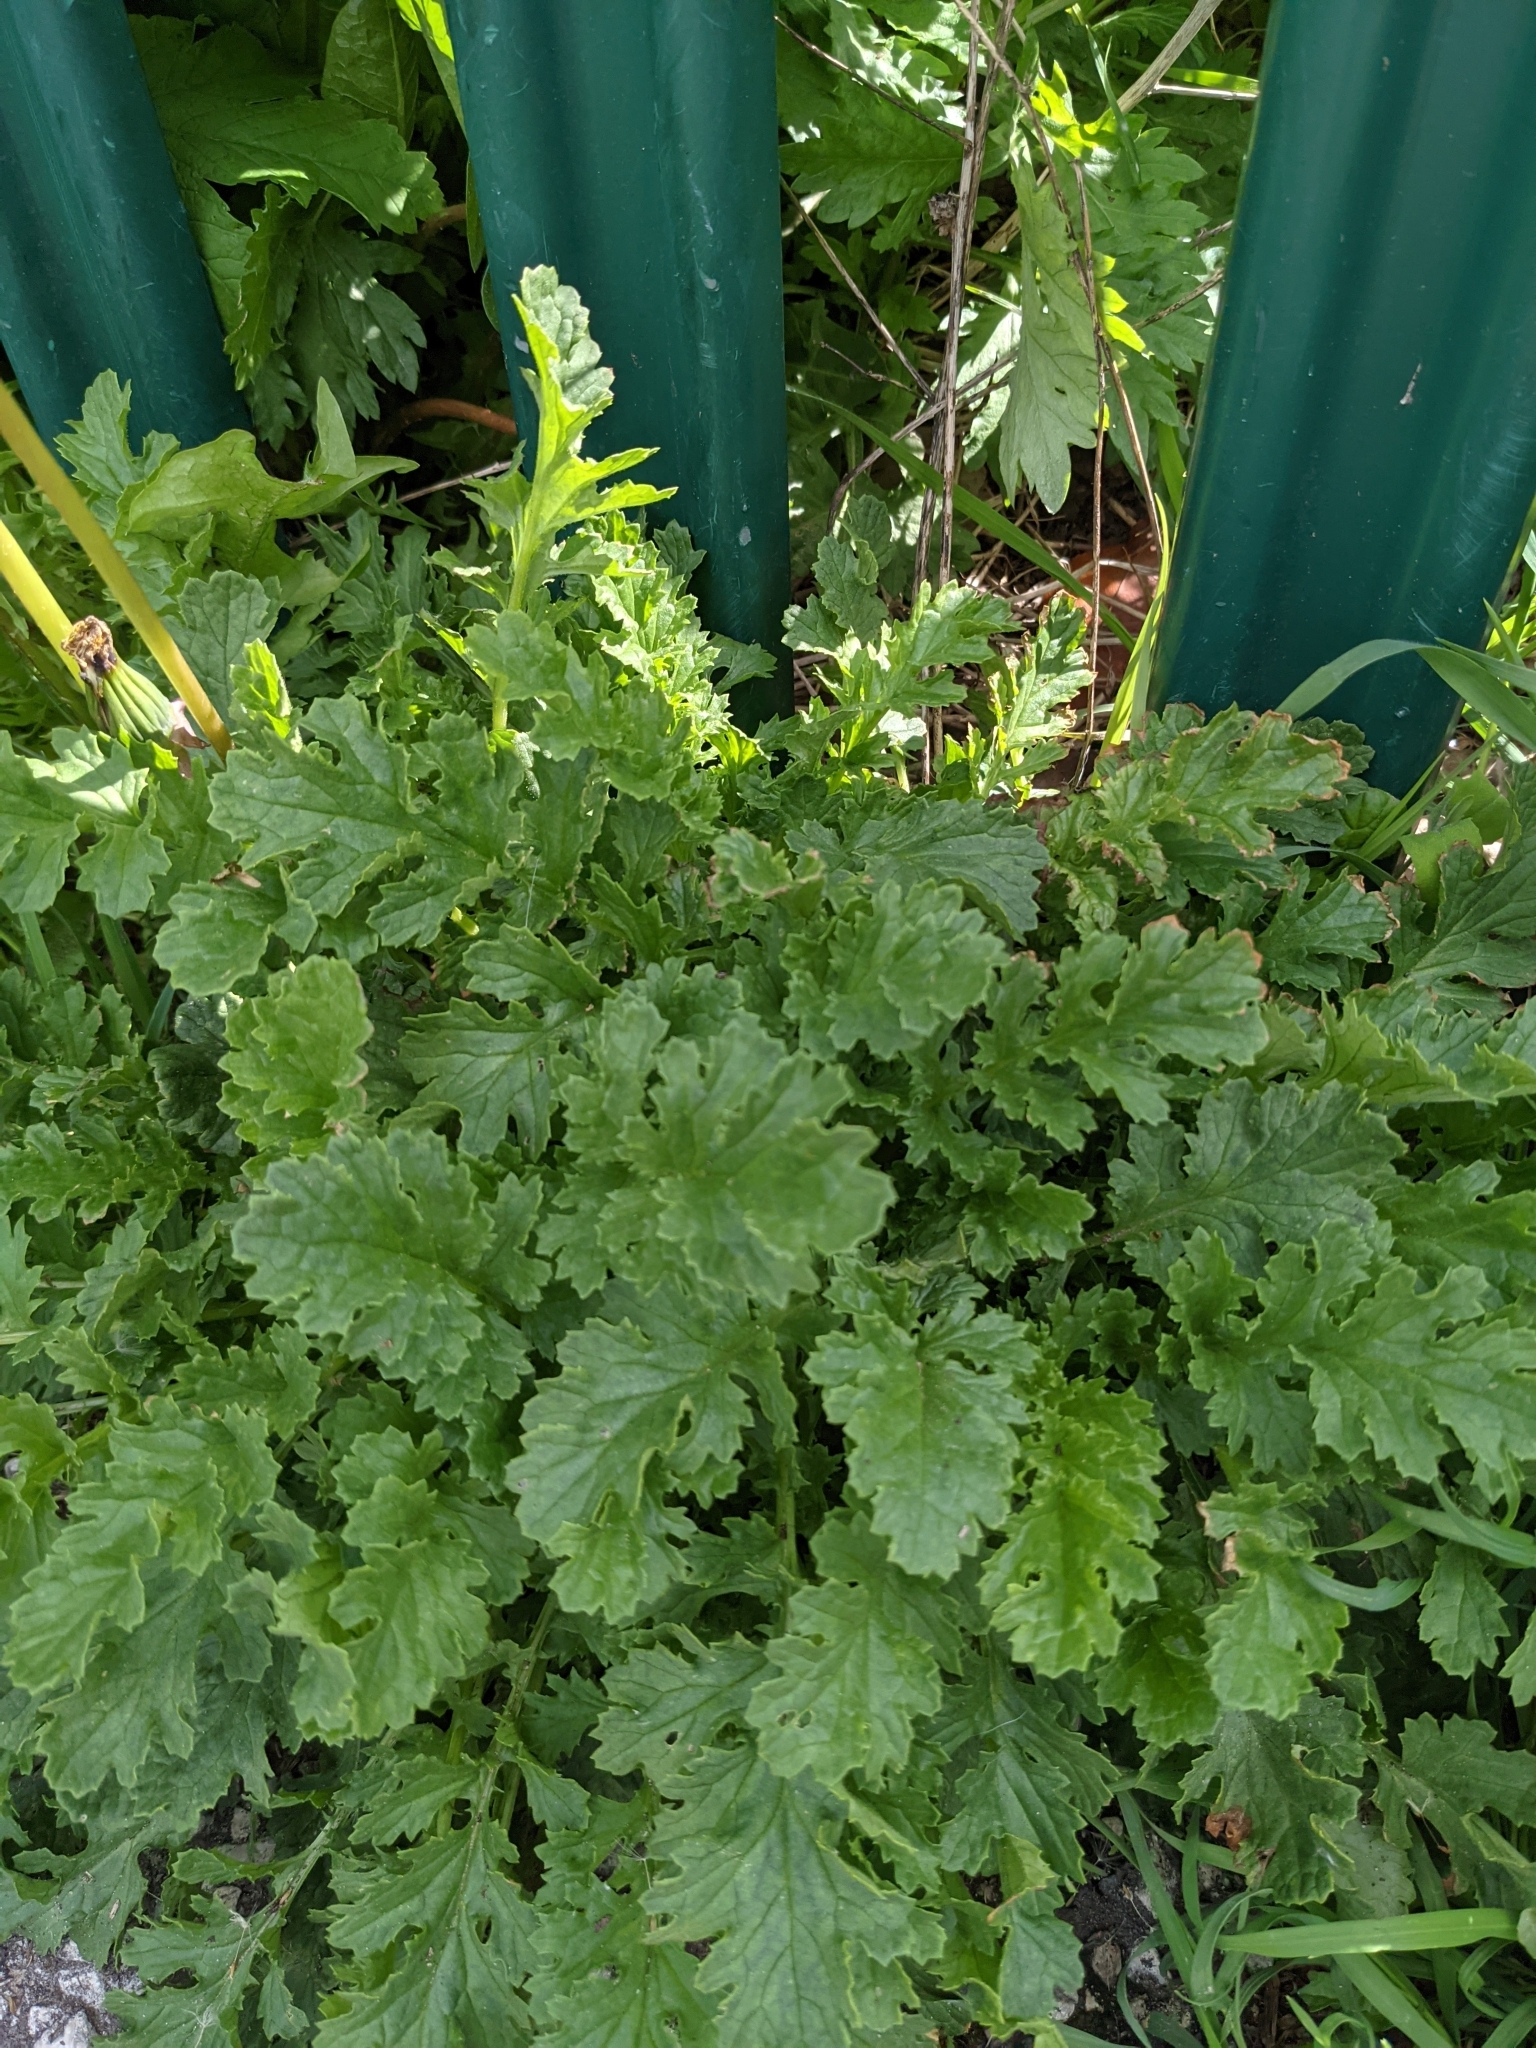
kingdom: Plantae
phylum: Tracheophyta
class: Magnoliopsida
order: Asterales
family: Asteraceae
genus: Jacobaea
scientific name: Jacobaea vulgaris
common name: Stinking willie
